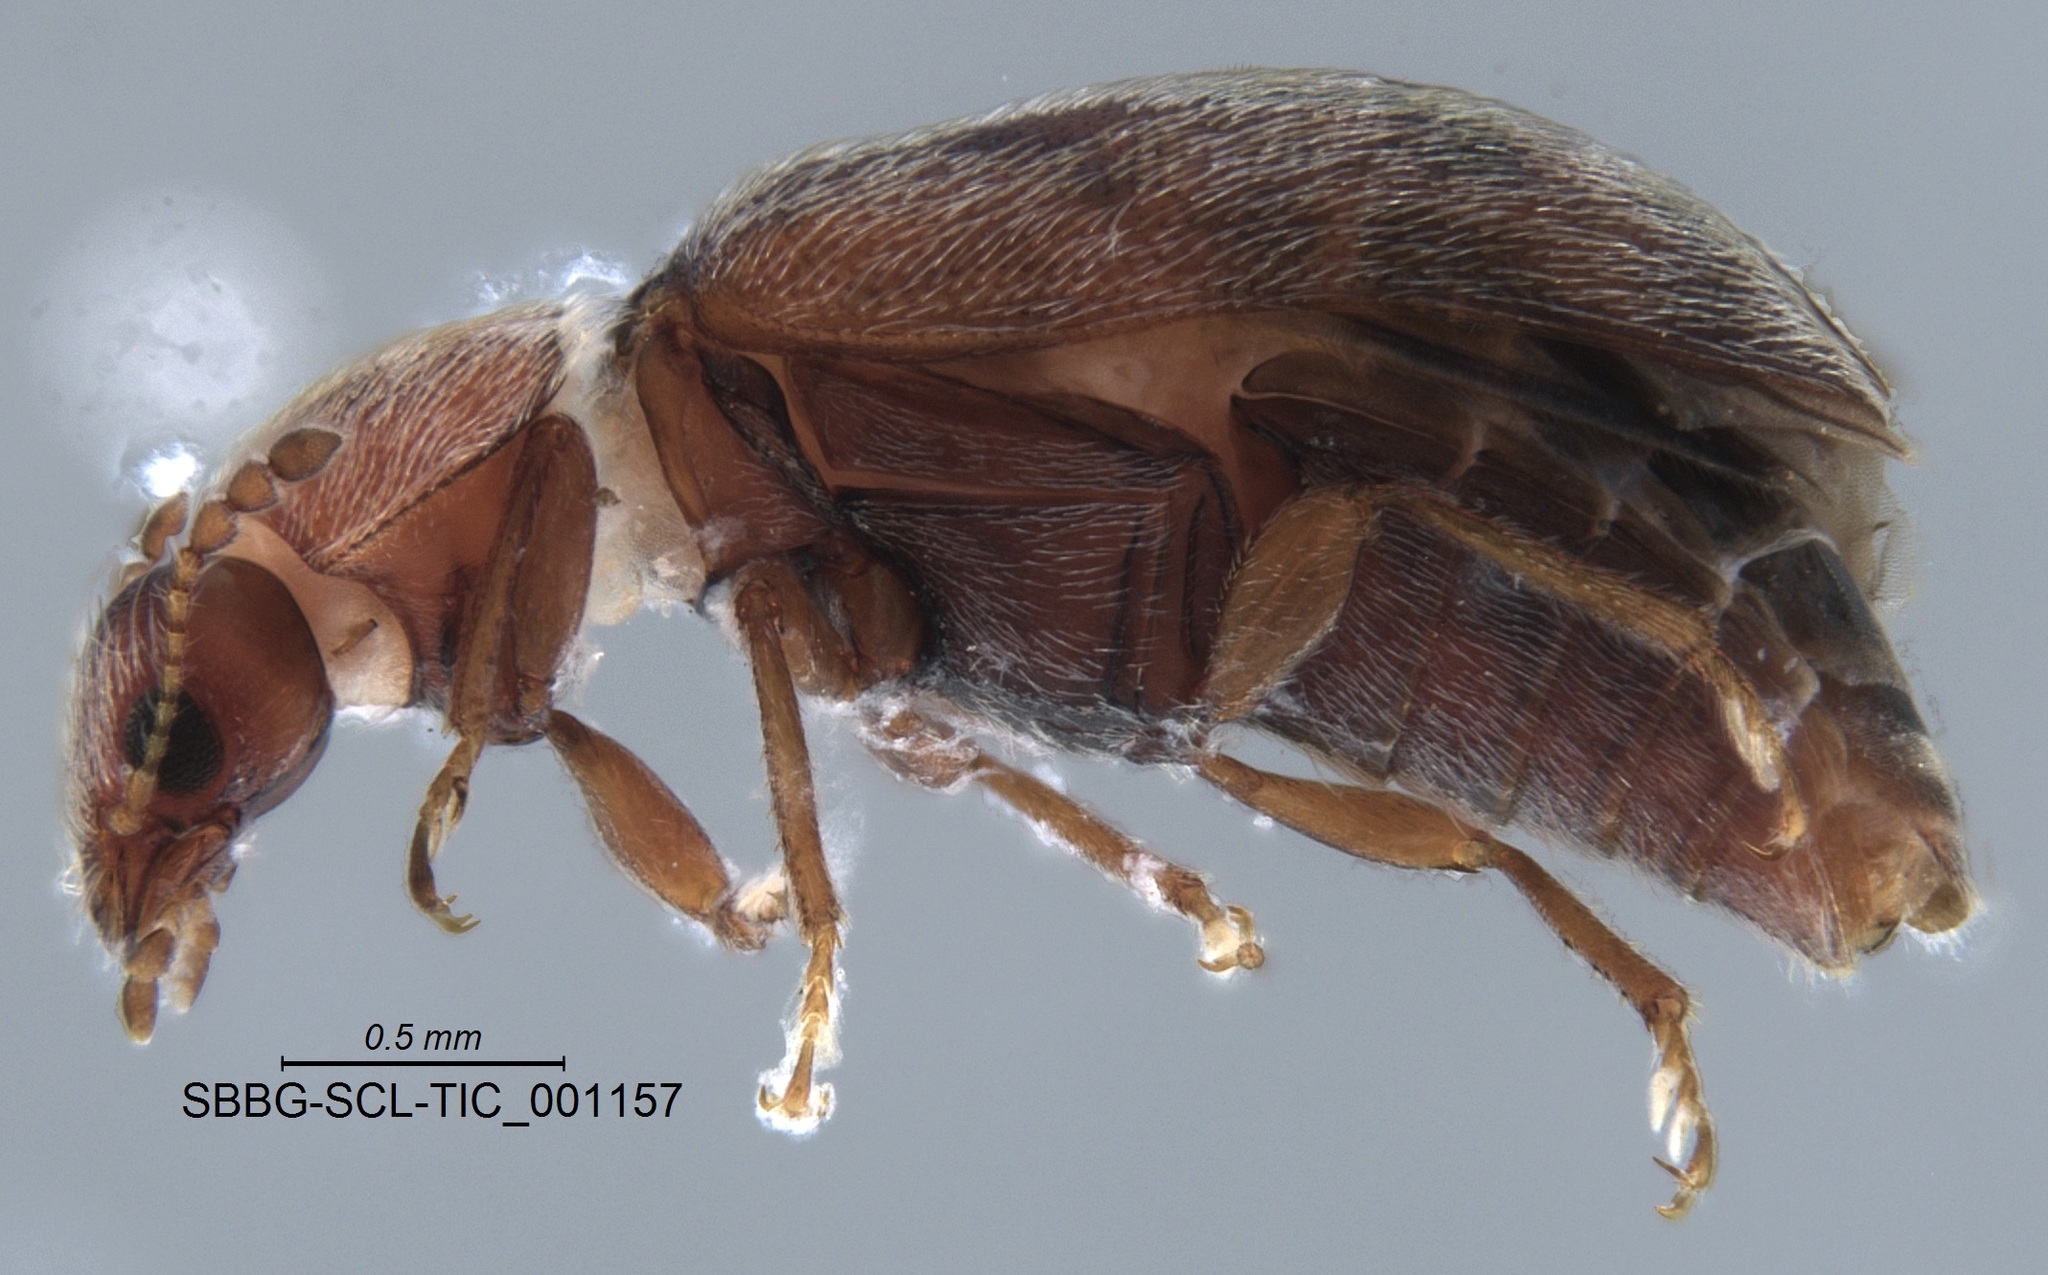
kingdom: Animalia
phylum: Arthropoda
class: Insecta
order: Coleoptera
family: Byturidae
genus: Xerasia
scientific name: Xerasia grisescens
